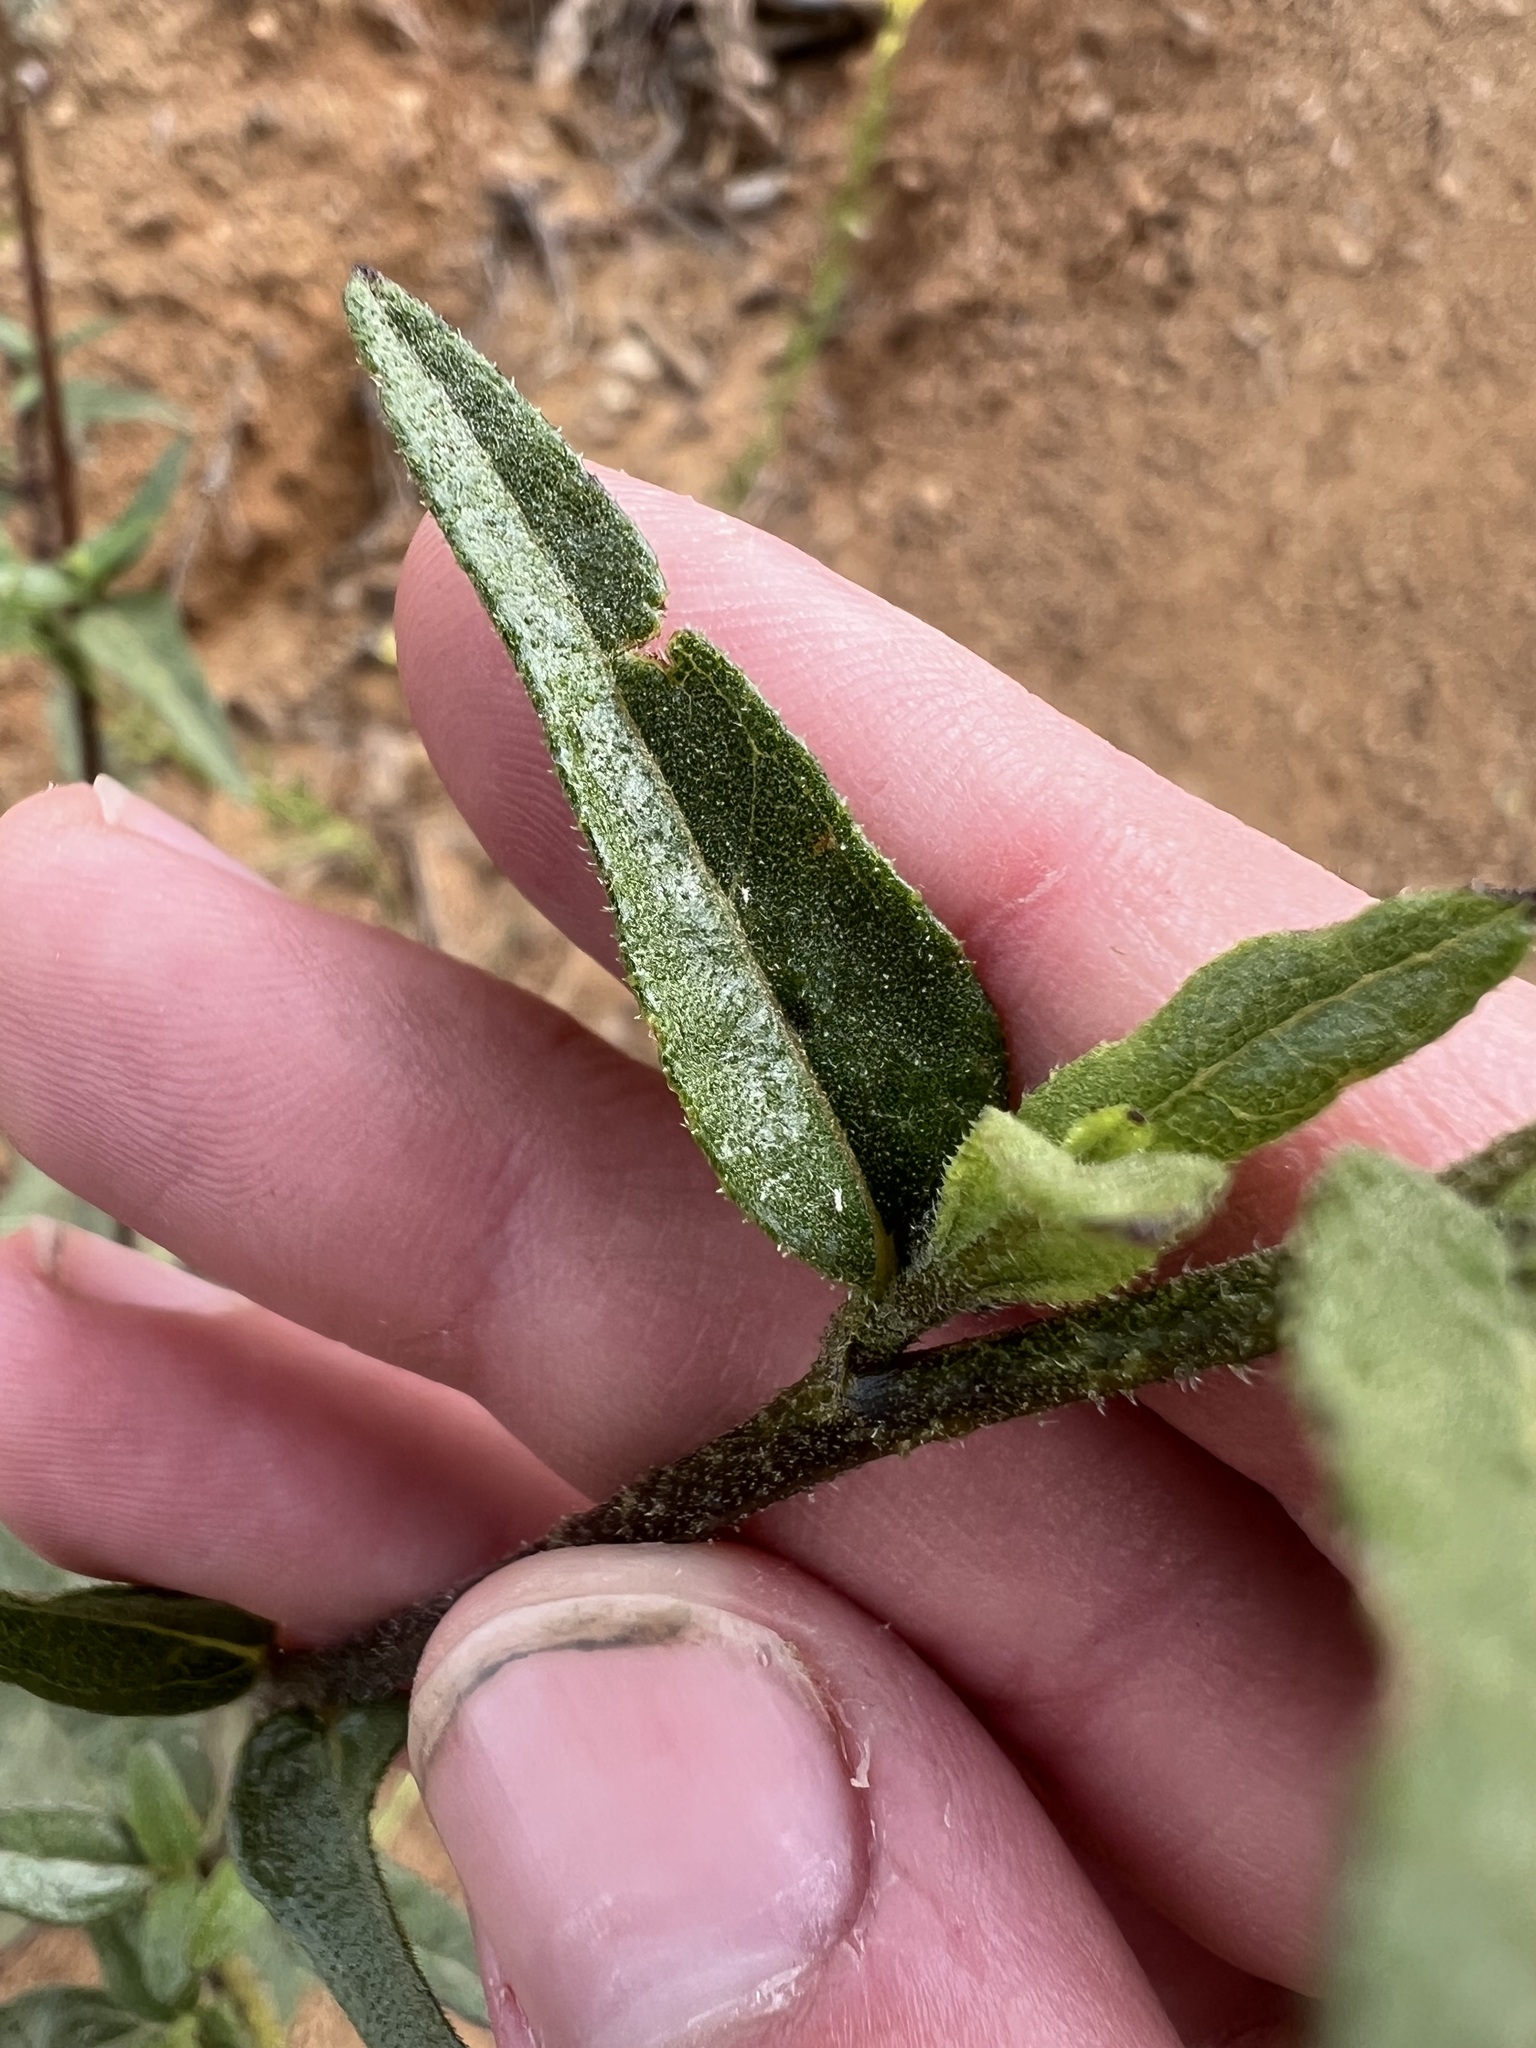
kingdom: Plantae
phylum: Tracheophyta
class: Magnoliopsida
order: Asterales
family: Asteraceae
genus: Helianthus
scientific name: Helianthus gracilentus
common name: Slender sunflower
